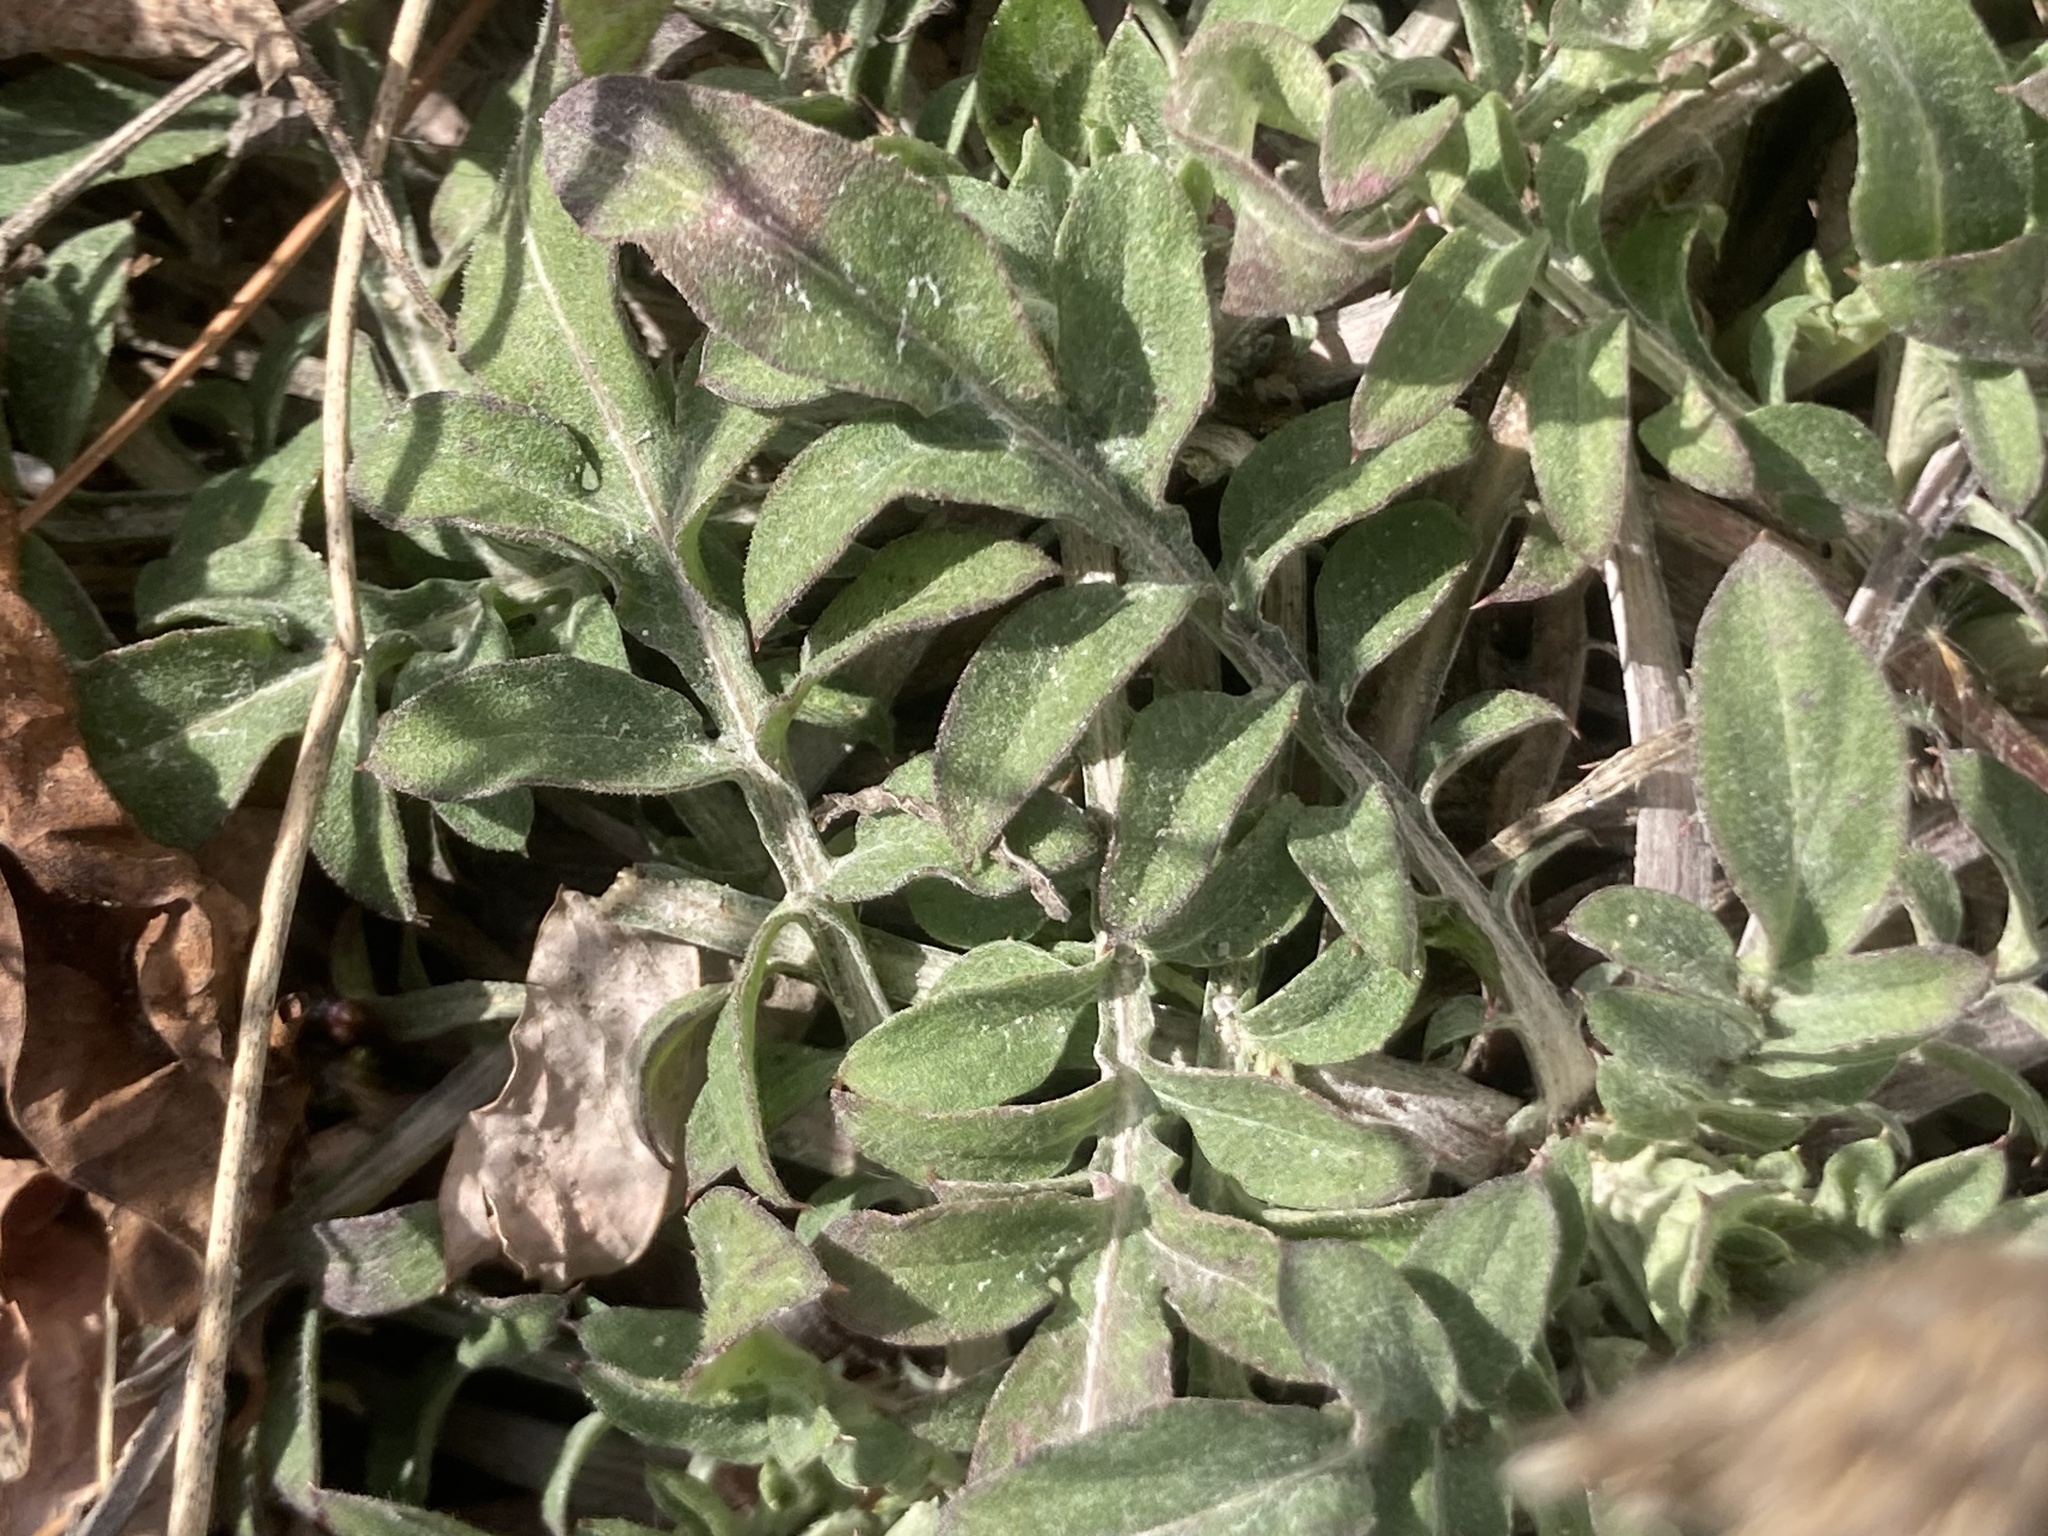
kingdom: Plantae
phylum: Tracheophyta
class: Magnoliopsida
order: Asterales
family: Asteraceae
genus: Centaurea
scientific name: Centaurea stoebe
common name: Spotted knapweed
